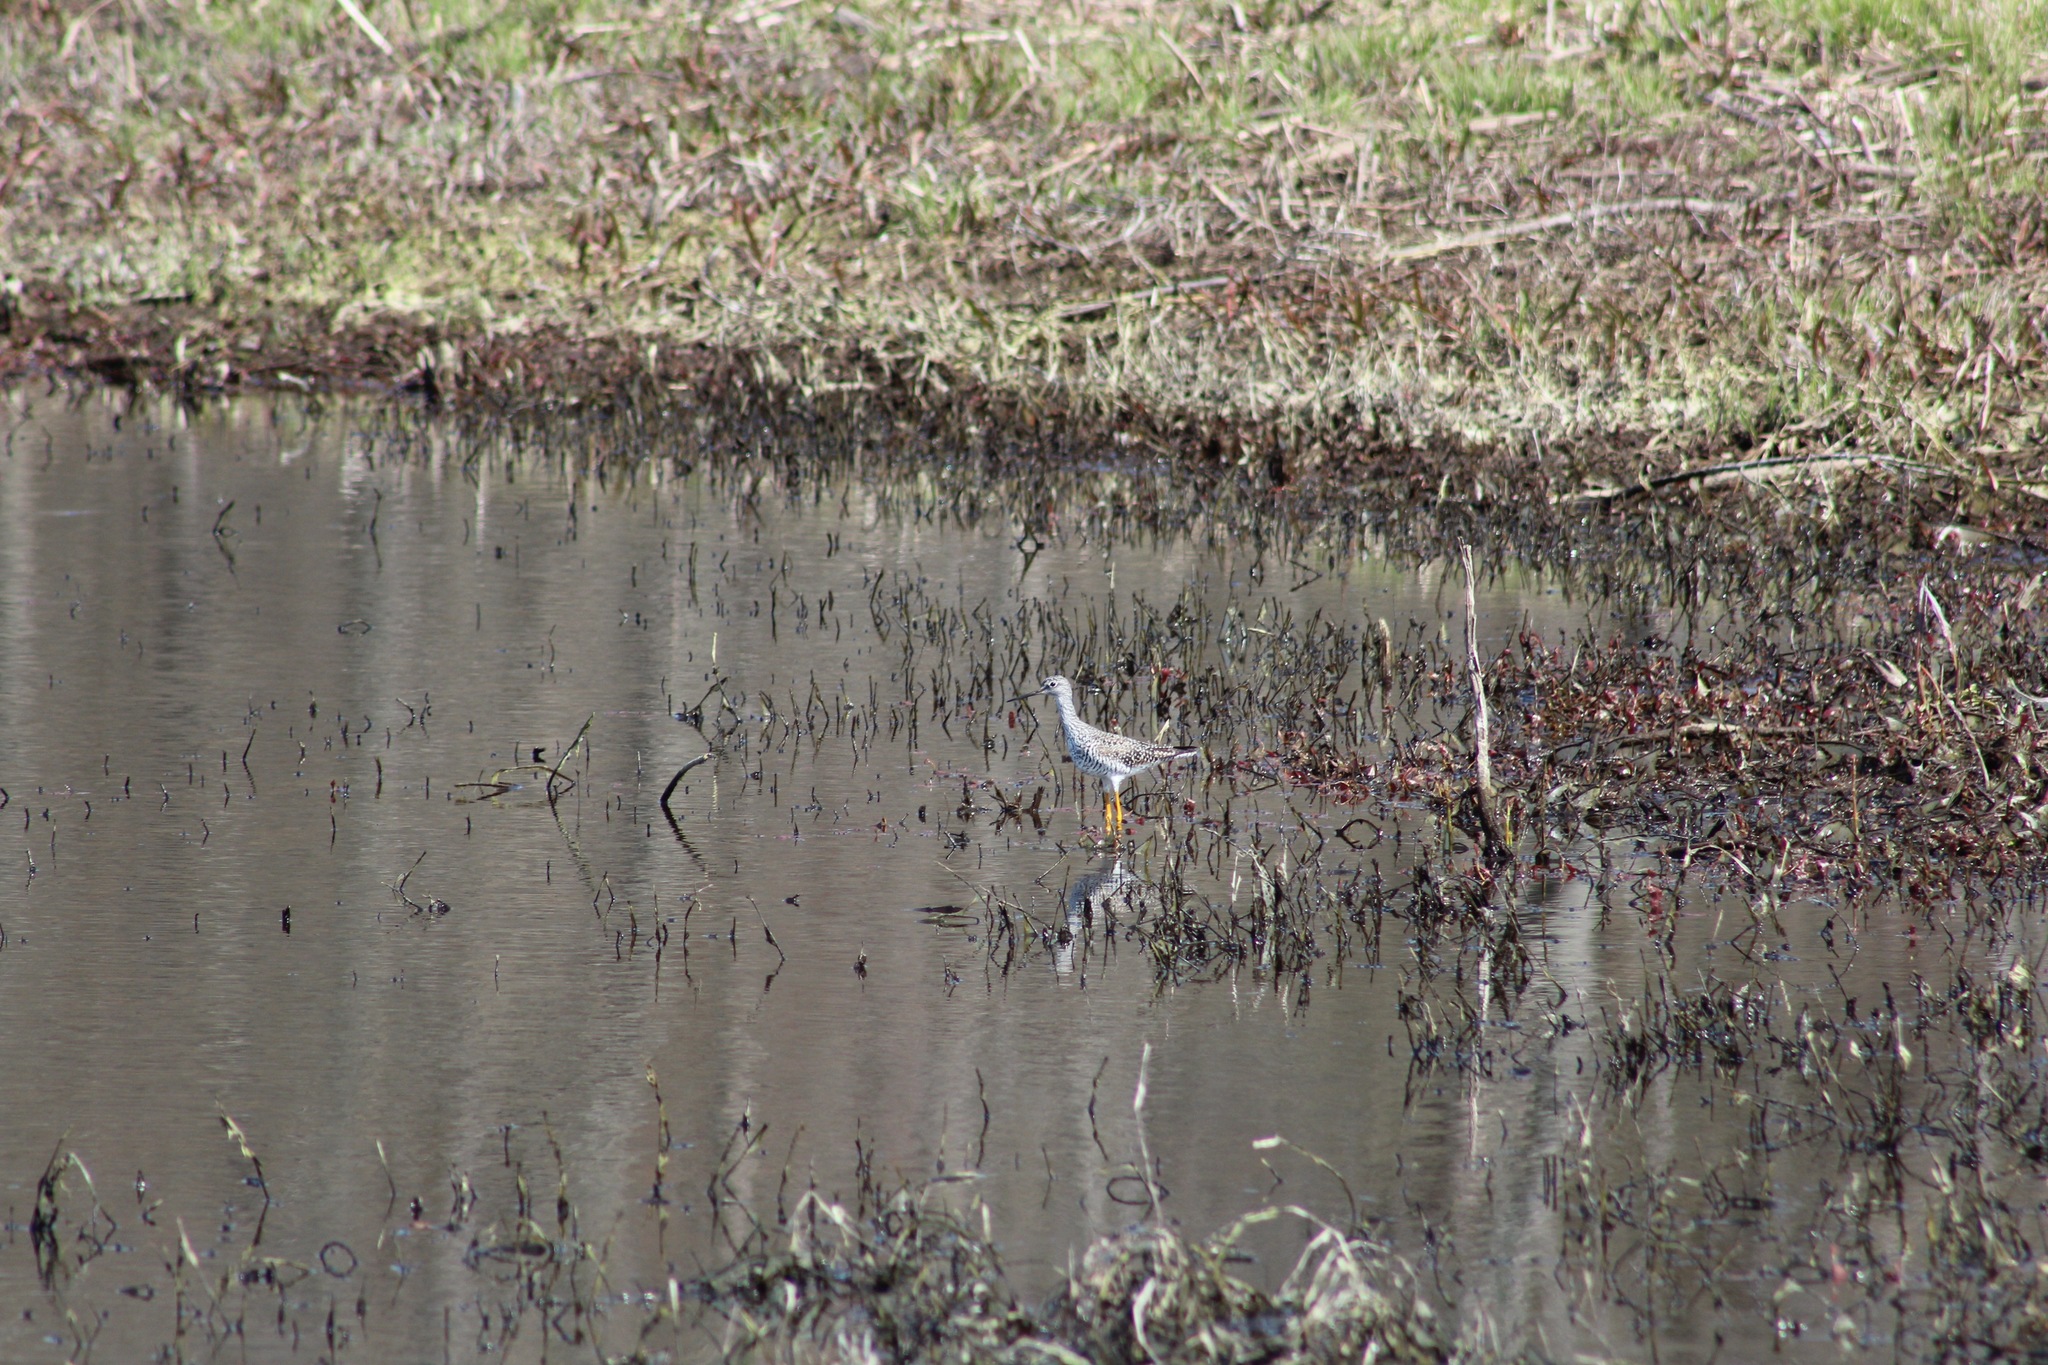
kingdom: Animalia
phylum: Chordata
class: Aves
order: Charadriiformes
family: Scolopacidae
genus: Tringa
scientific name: Tringa melanoleuca
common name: Greater yellowlegs
